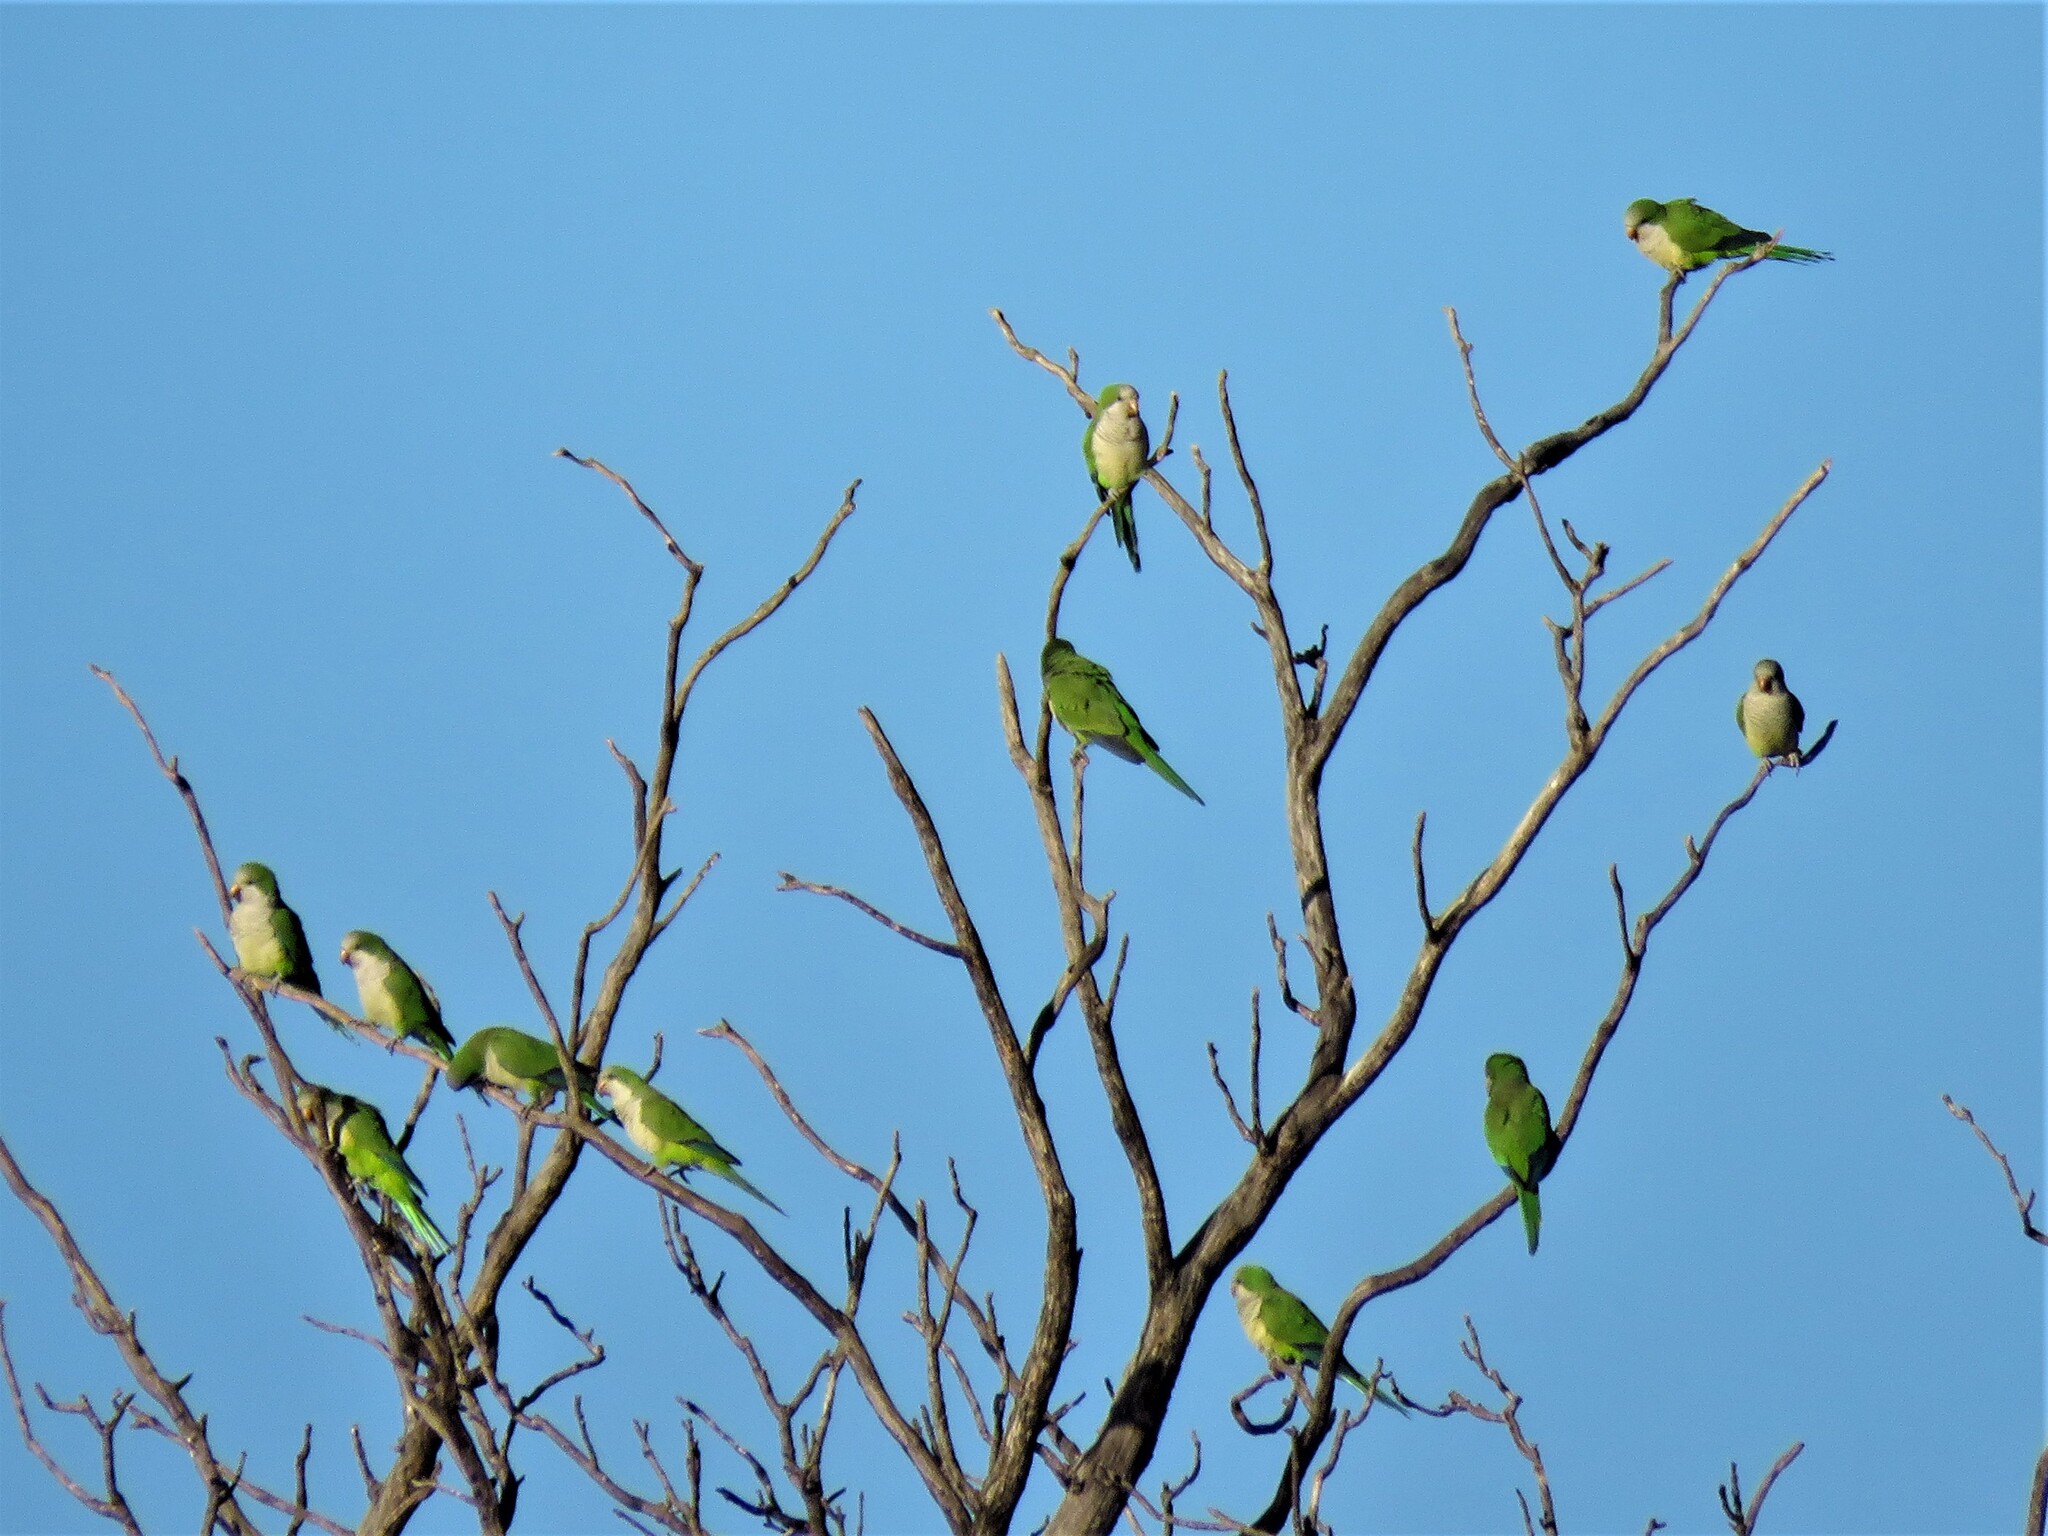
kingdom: Animalia
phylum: Chordata
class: Aves
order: Psittaciformes
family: Psittacidae
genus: Myiopsitta
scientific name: Myiopsitta monachus
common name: Monk parakeet
